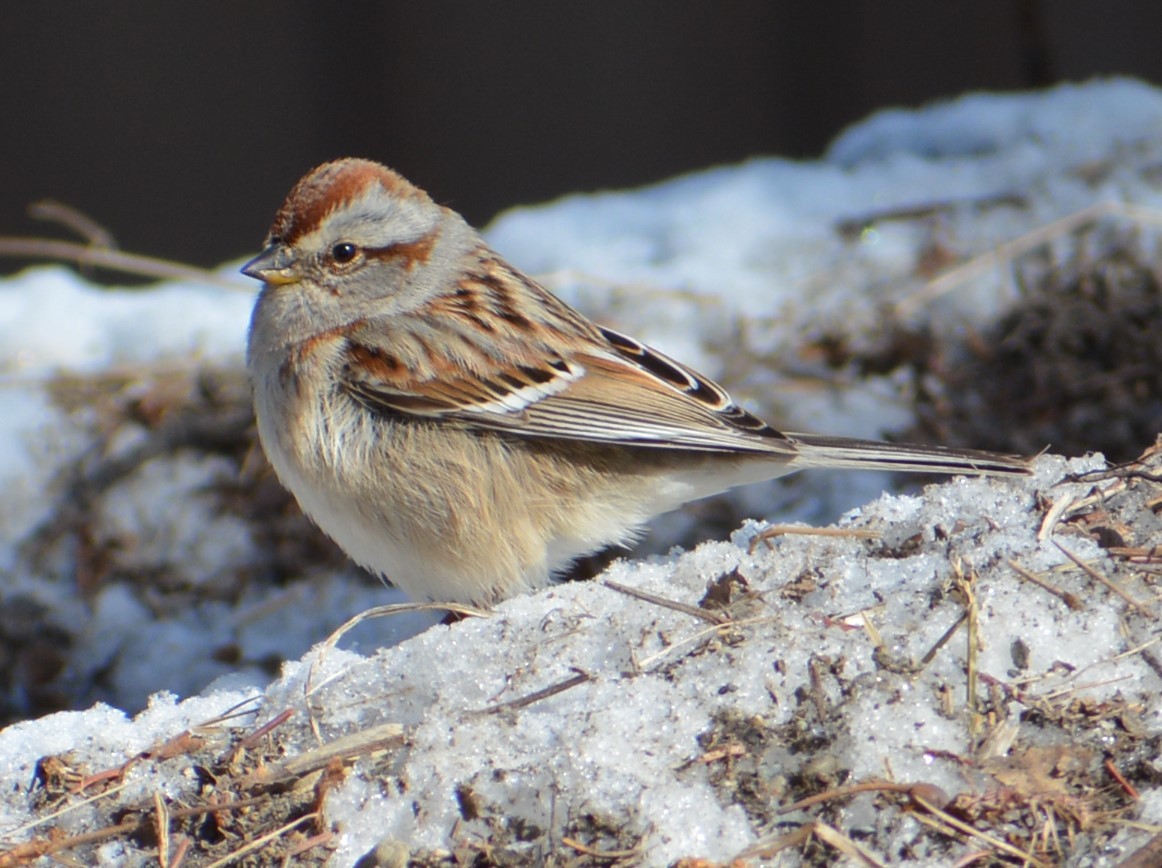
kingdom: Animalia
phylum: Chordata
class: Aves
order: Passeriformes
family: Passerellidae
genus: Spizelloides
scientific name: Spizelloides arborea
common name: American tree sparrow
